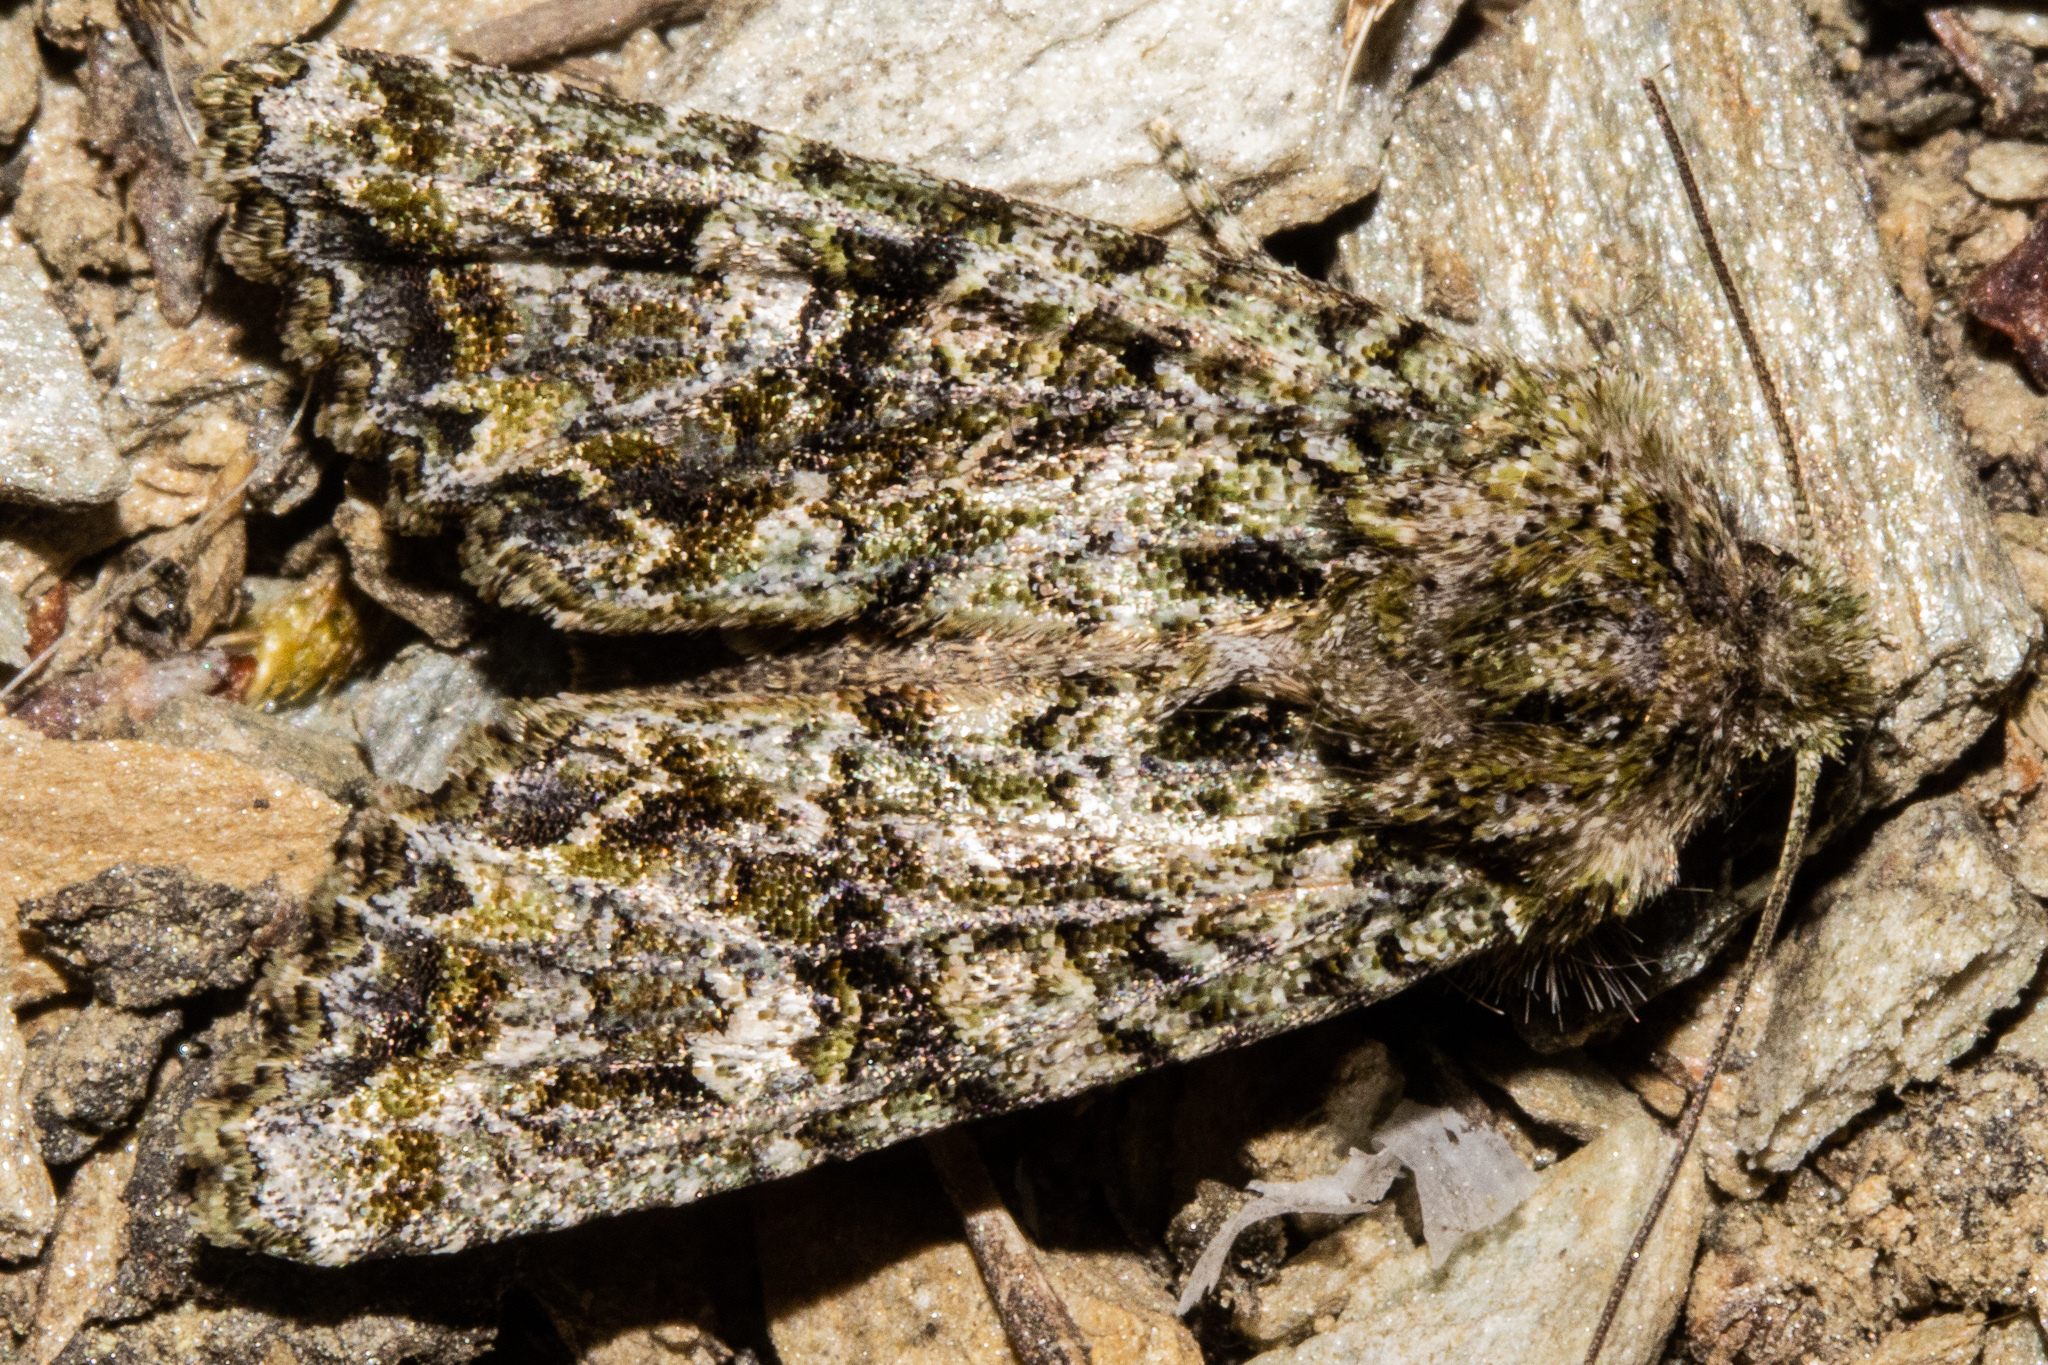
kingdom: Animalia
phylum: Arthropoda
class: Insecta
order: Lepidoptera
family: Noctuidae
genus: Ichneutica
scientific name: Ichneutica
